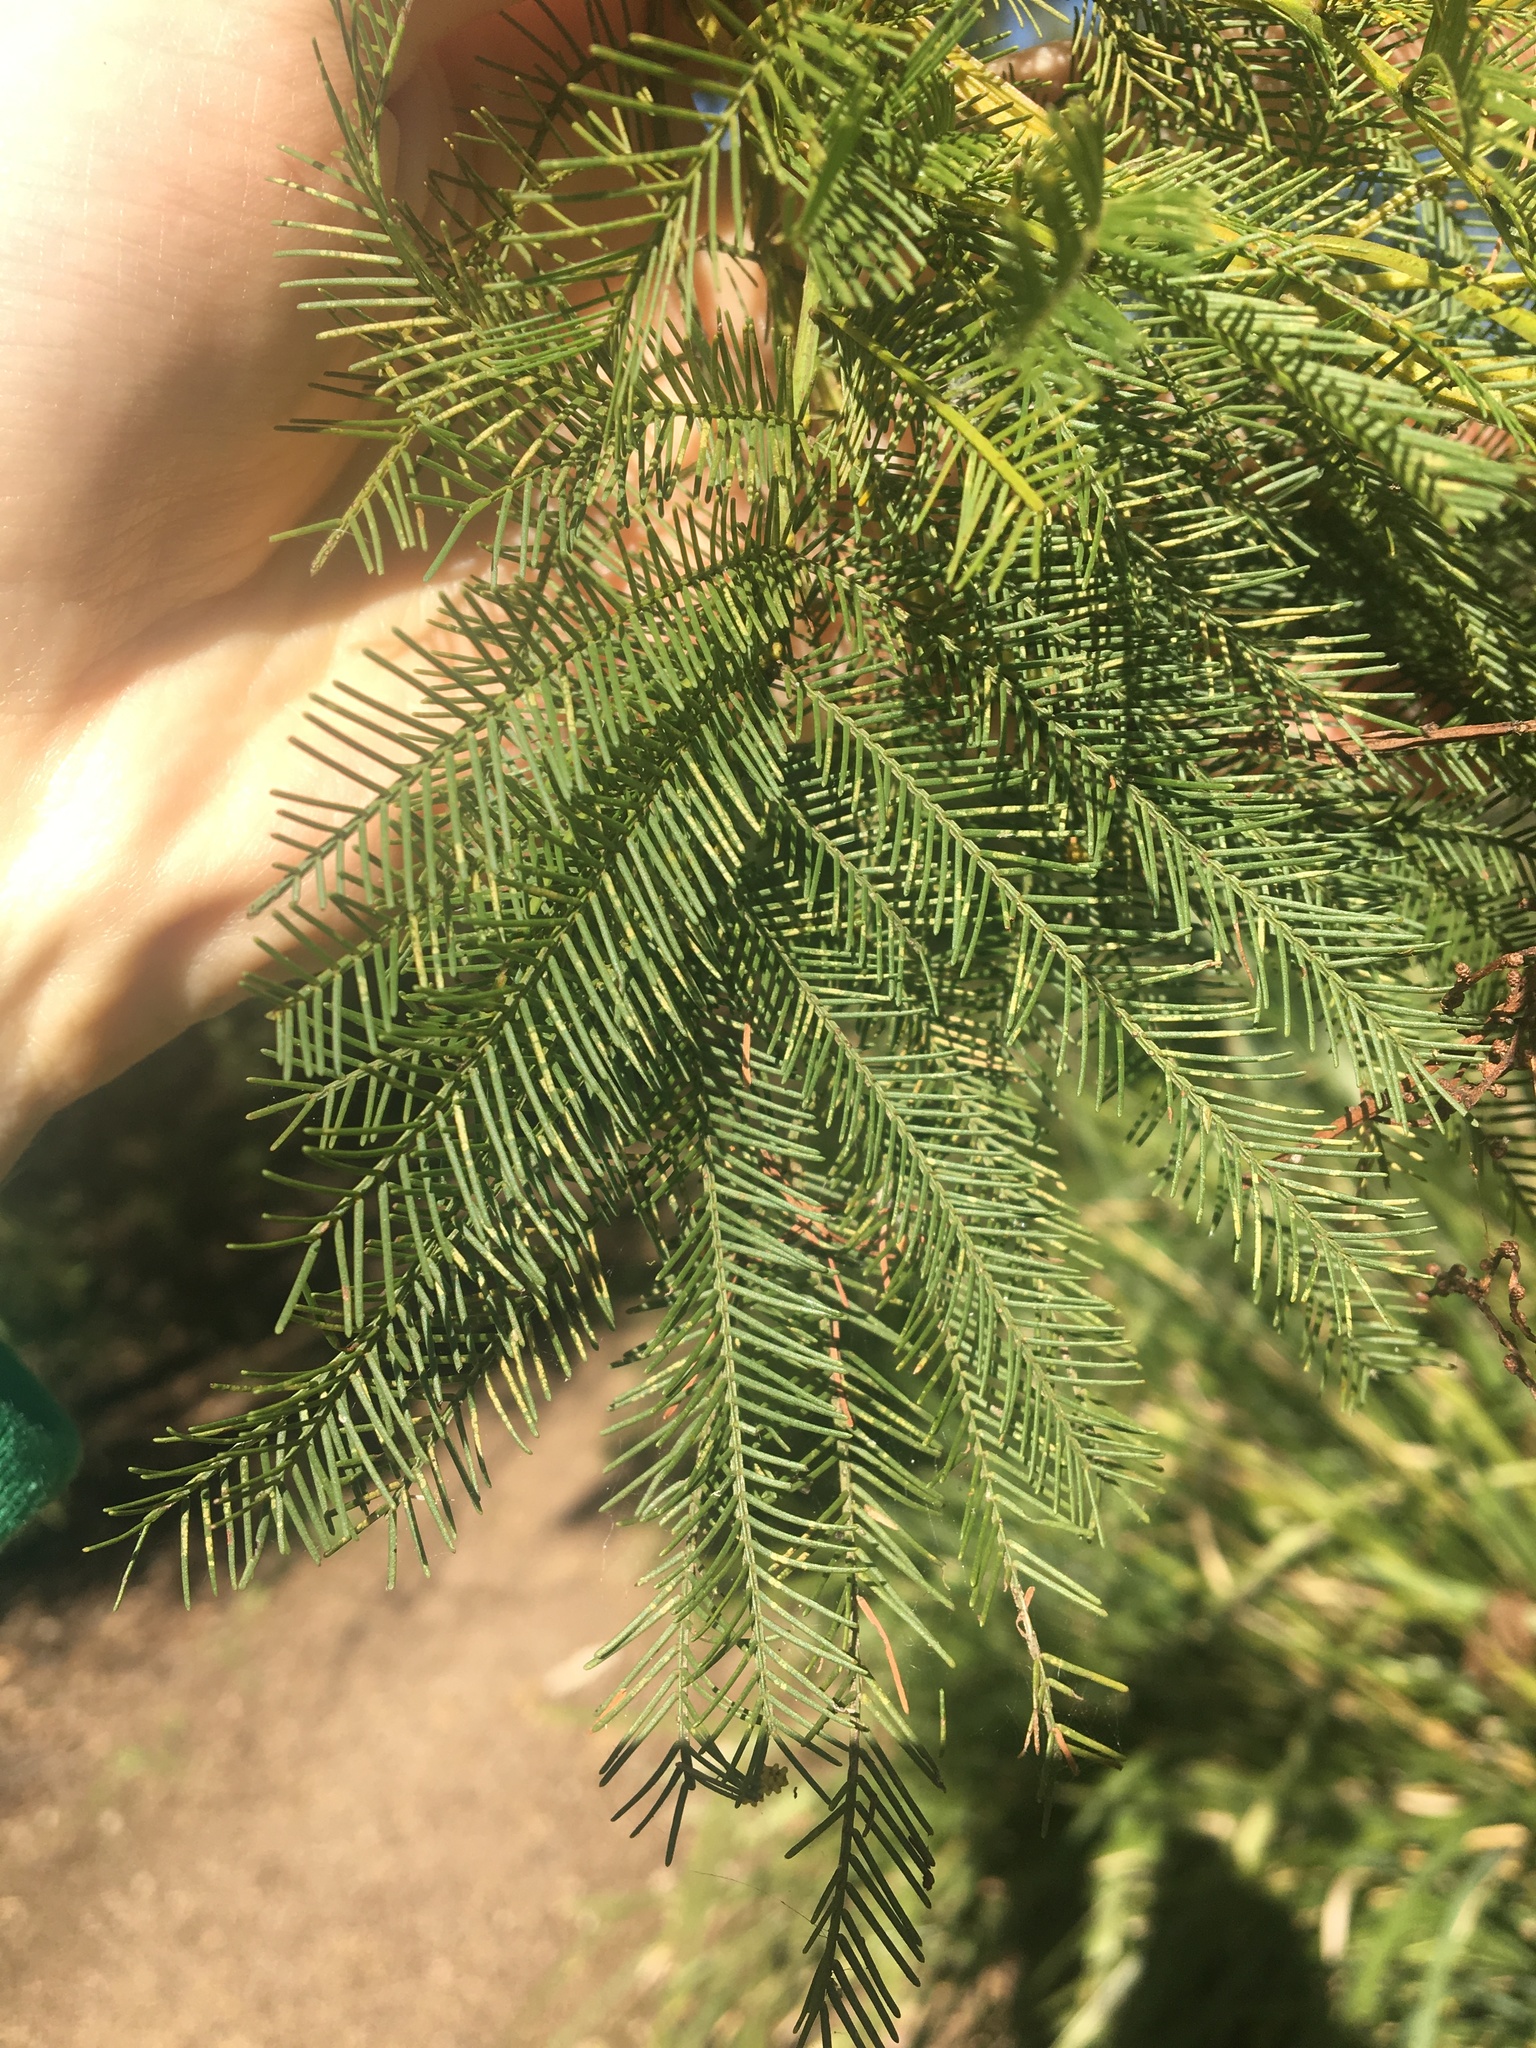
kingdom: Plantae
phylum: Tracheophyta
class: Magnoliopsida
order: Fabales
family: Fabaceae
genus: Acacia
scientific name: Acacia decurrens
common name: Green wattle
